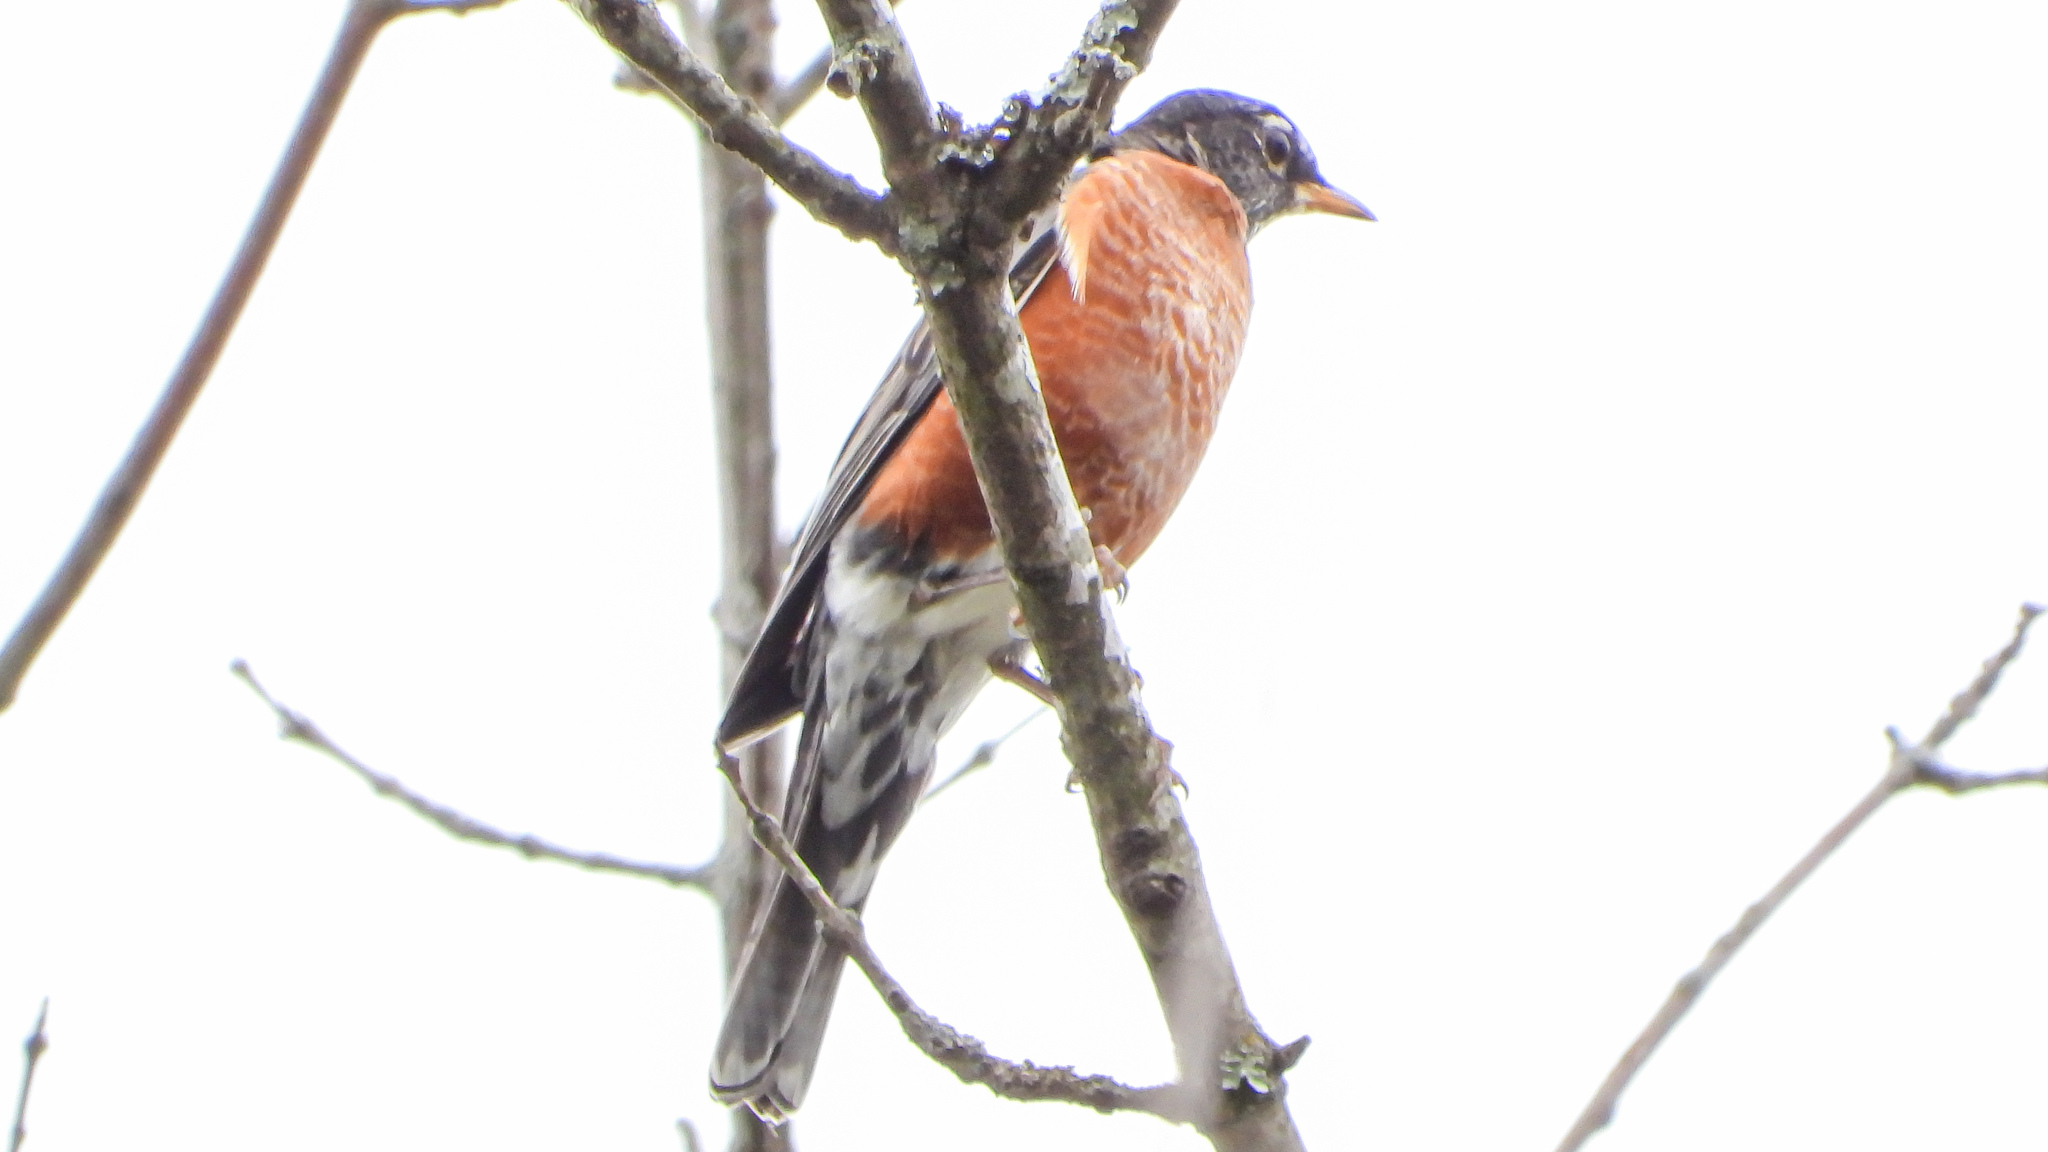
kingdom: Animalia
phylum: Chordata
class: Aves
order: Passeriformes
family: Turdidae
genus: Turdus
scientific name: Turdus migratorius
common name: American robin
